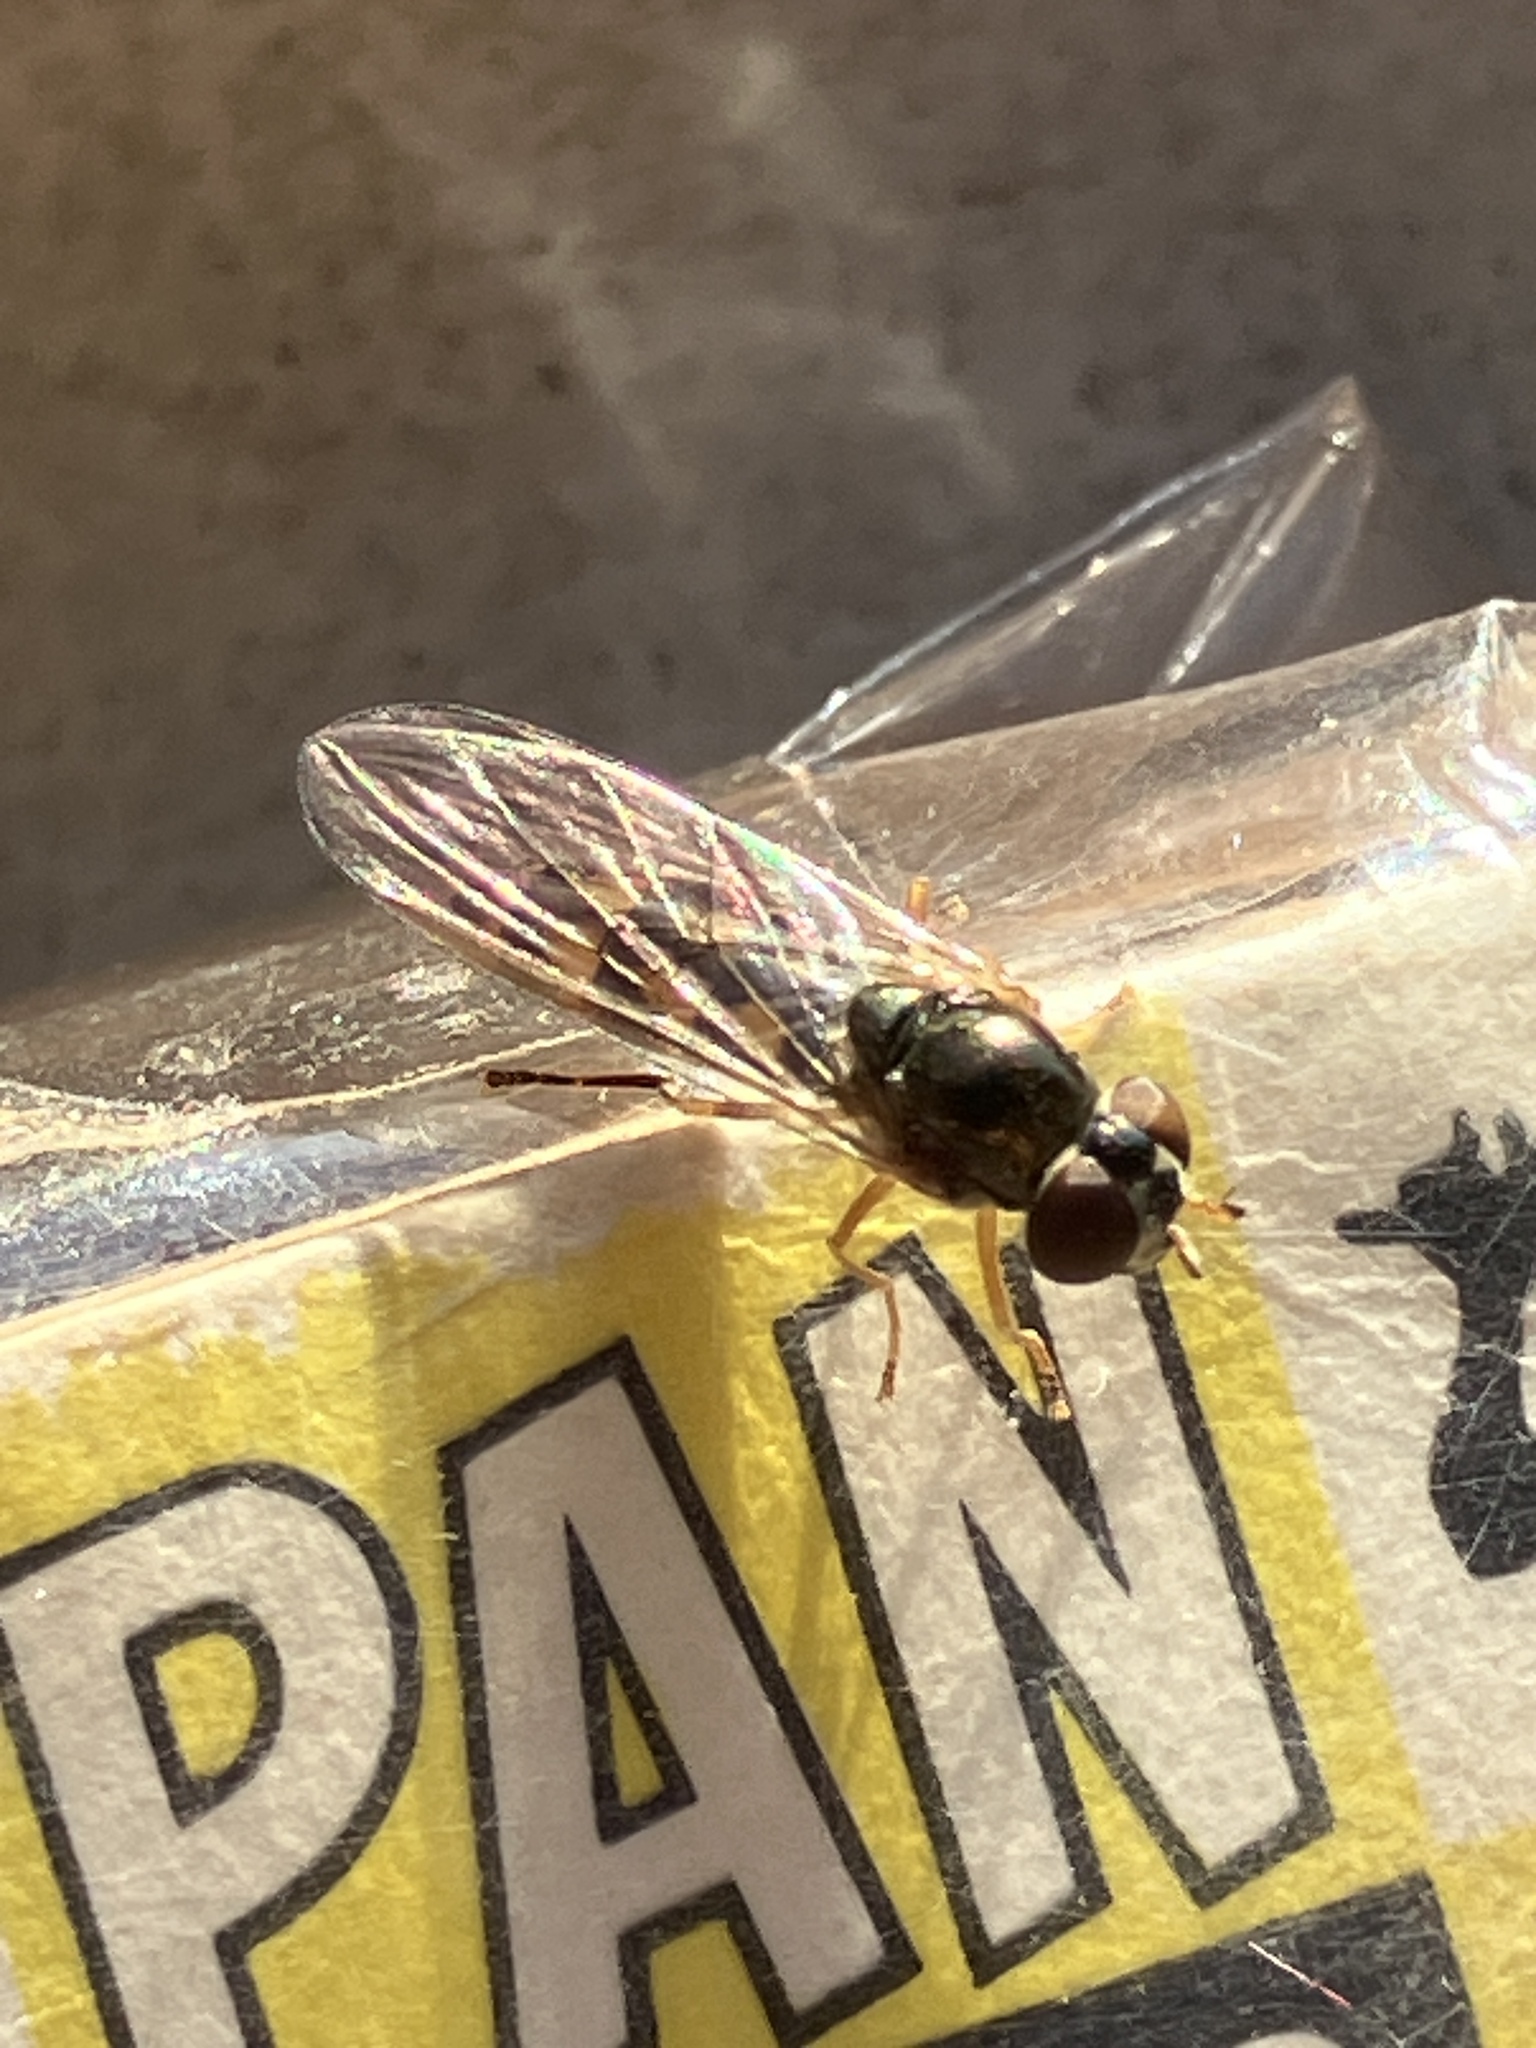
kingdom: Animalia
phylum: Arthropoda
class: Insecta
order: Diptera
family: Syrphidae
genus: Melanostoma
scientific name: Melanostoma scalare
